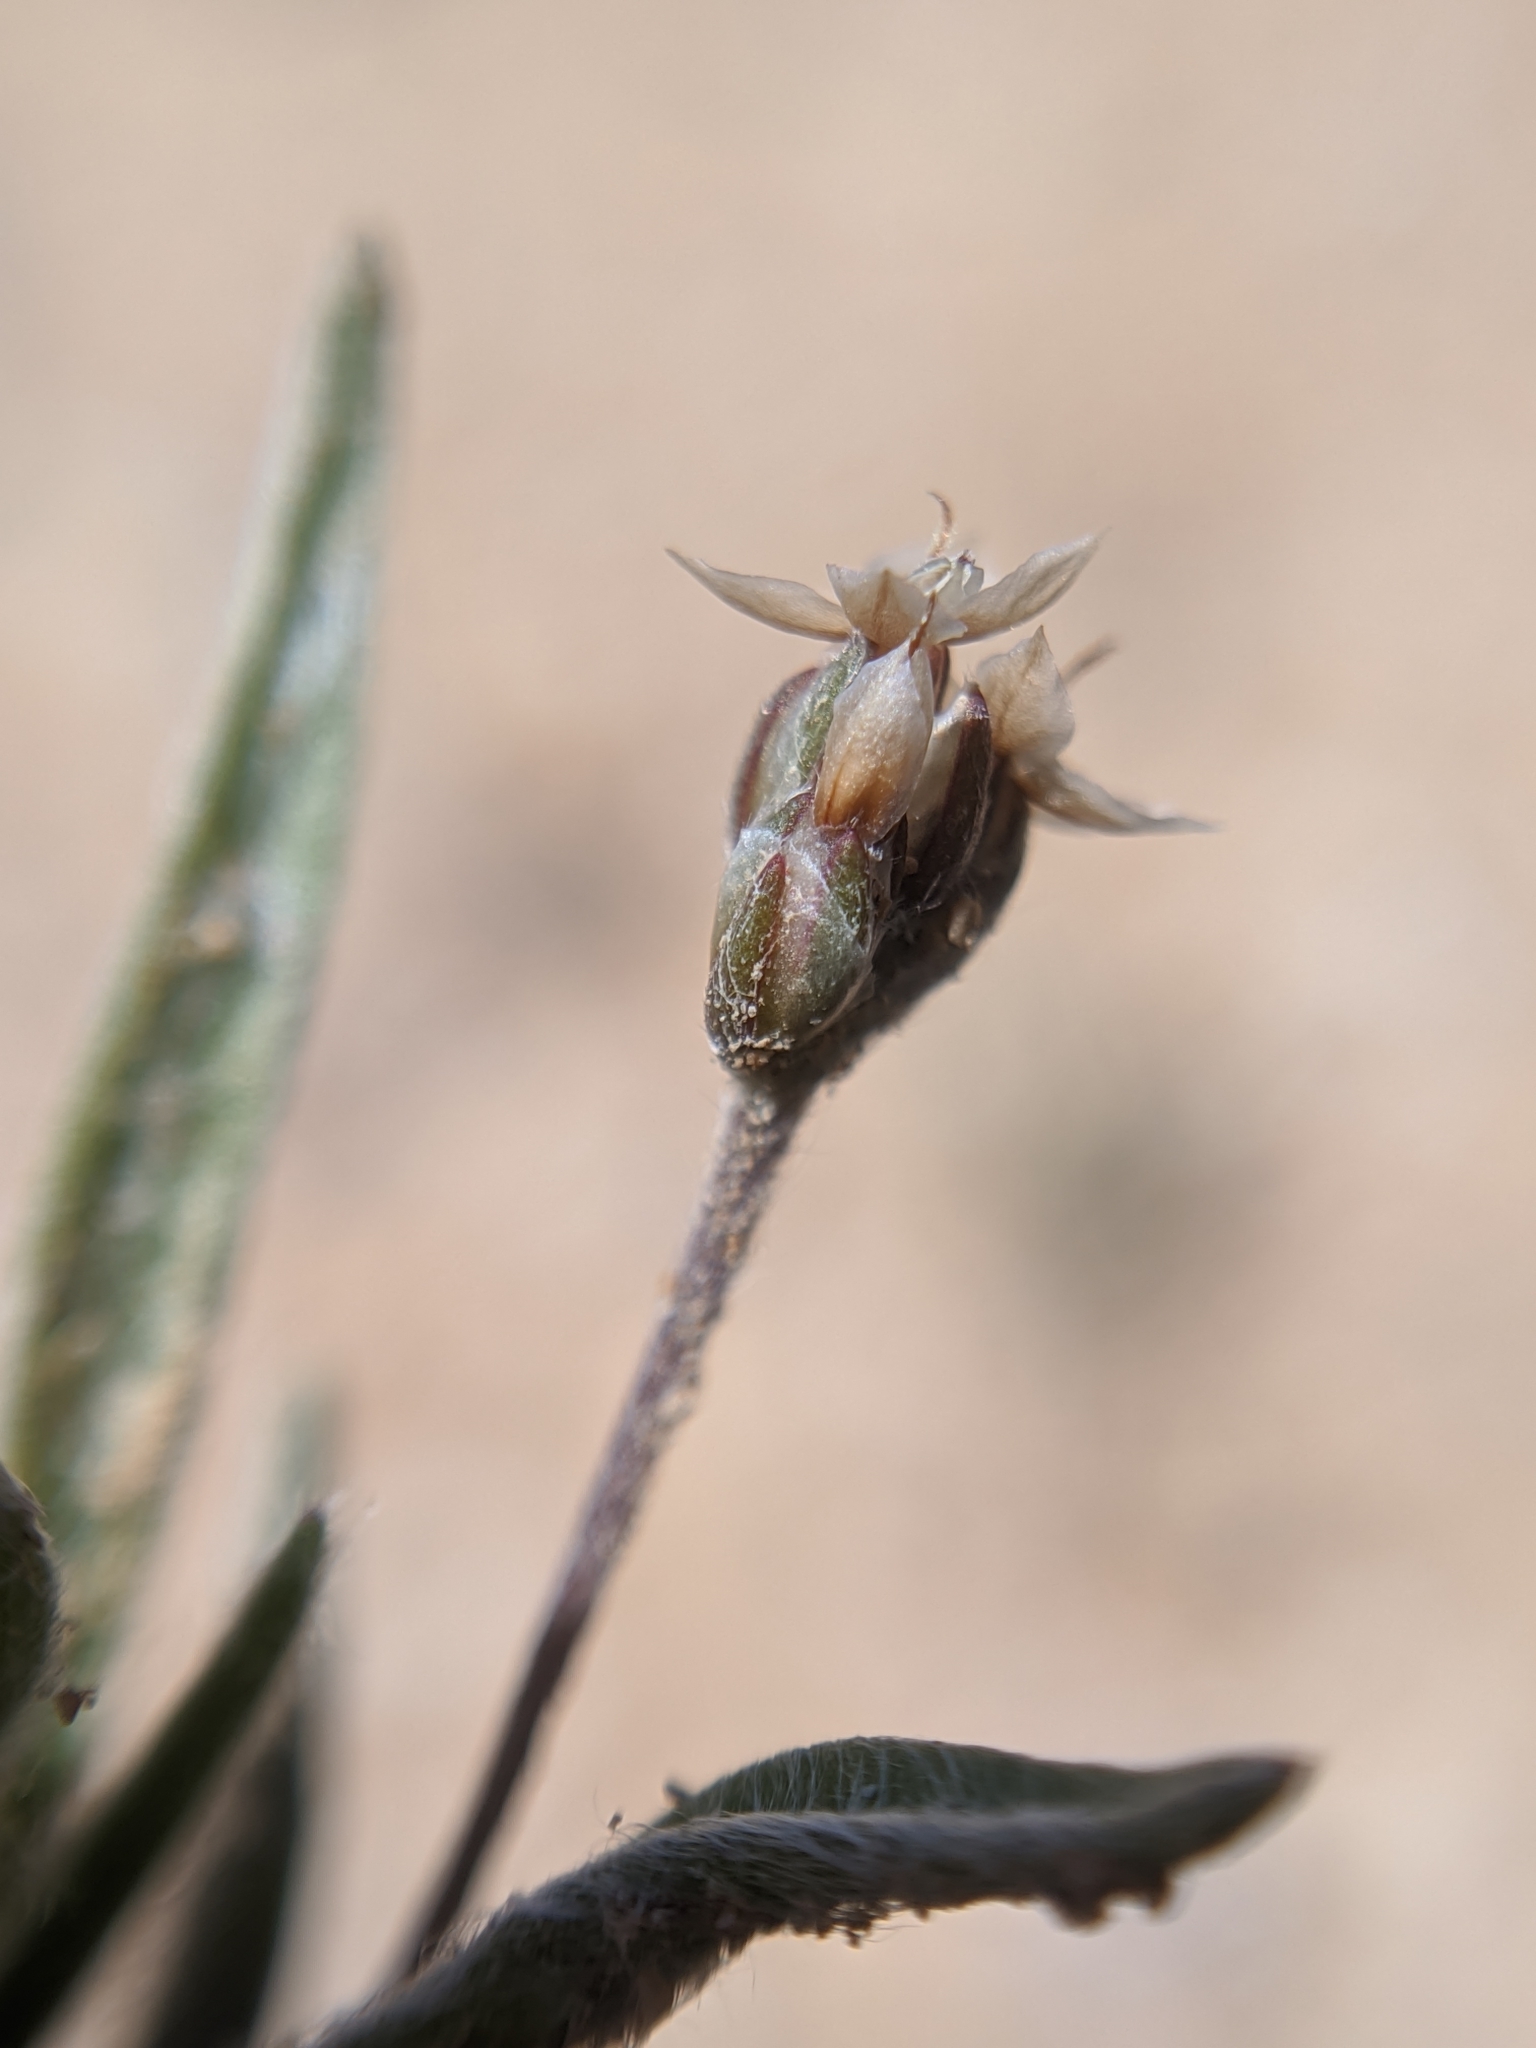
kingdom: Plantae
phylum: Tracheophyta
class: Magnoliopsida
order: Lamiales
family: Plantaginaceae
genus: Plantago
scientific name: Plantago ovata
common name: Blond plantain
